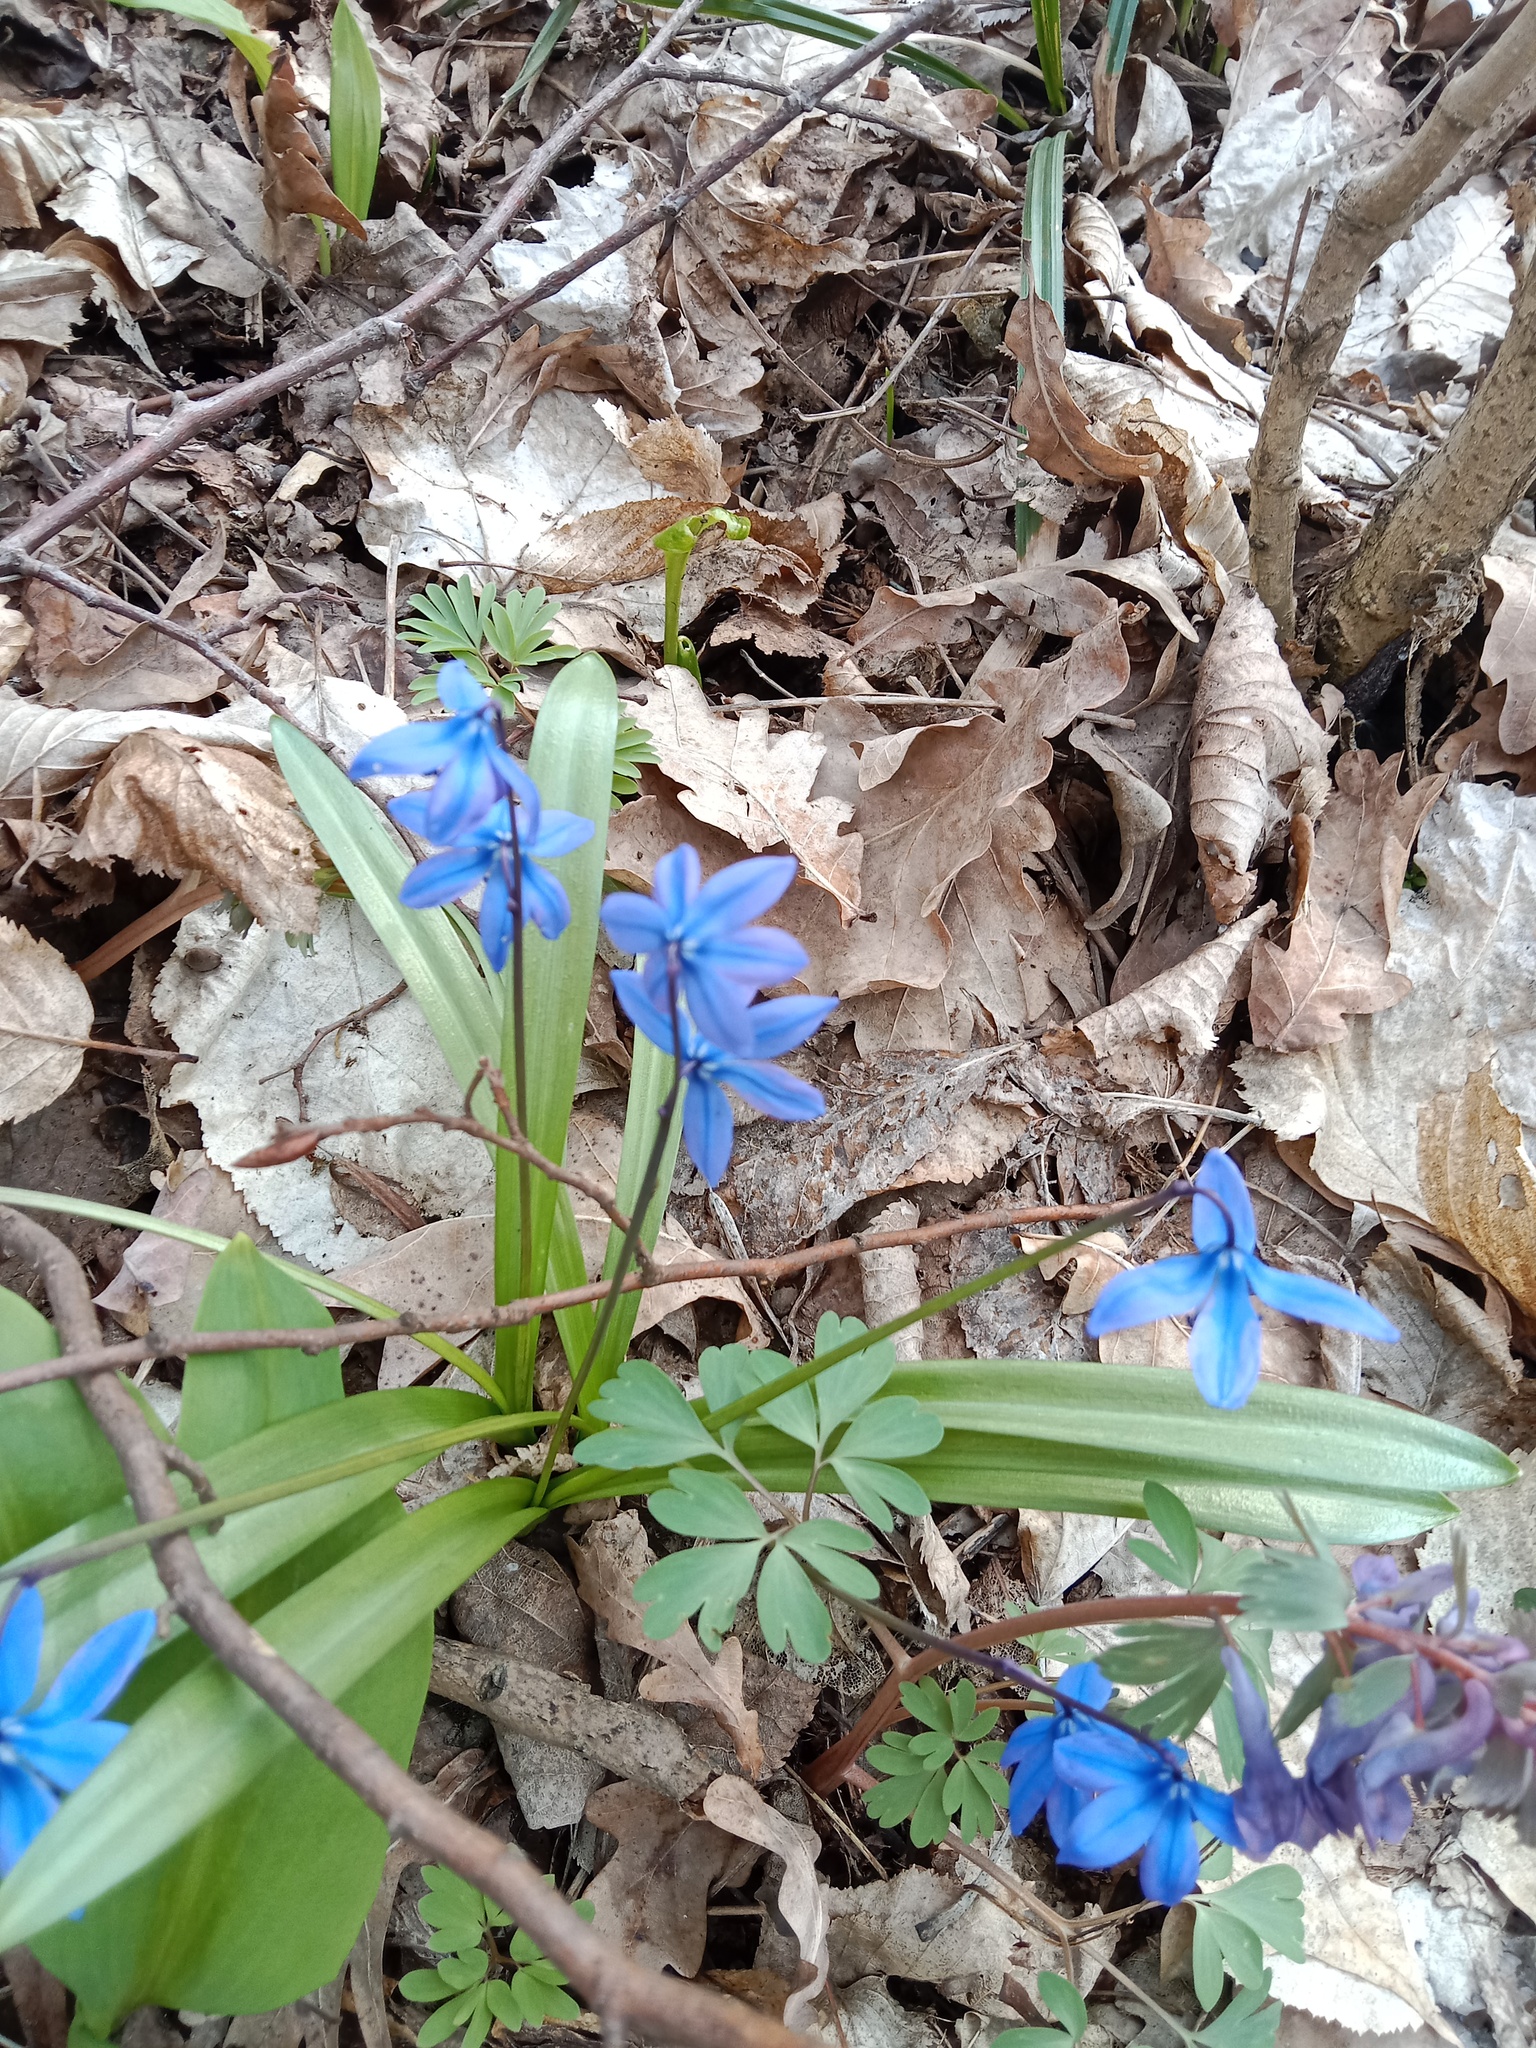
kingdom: Plantae
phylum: Tracheophyta
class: Liliopsida
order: Asparagales
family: Asparagaceae
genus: Scilla
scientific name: Scilla siberica
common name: Siberian squill
